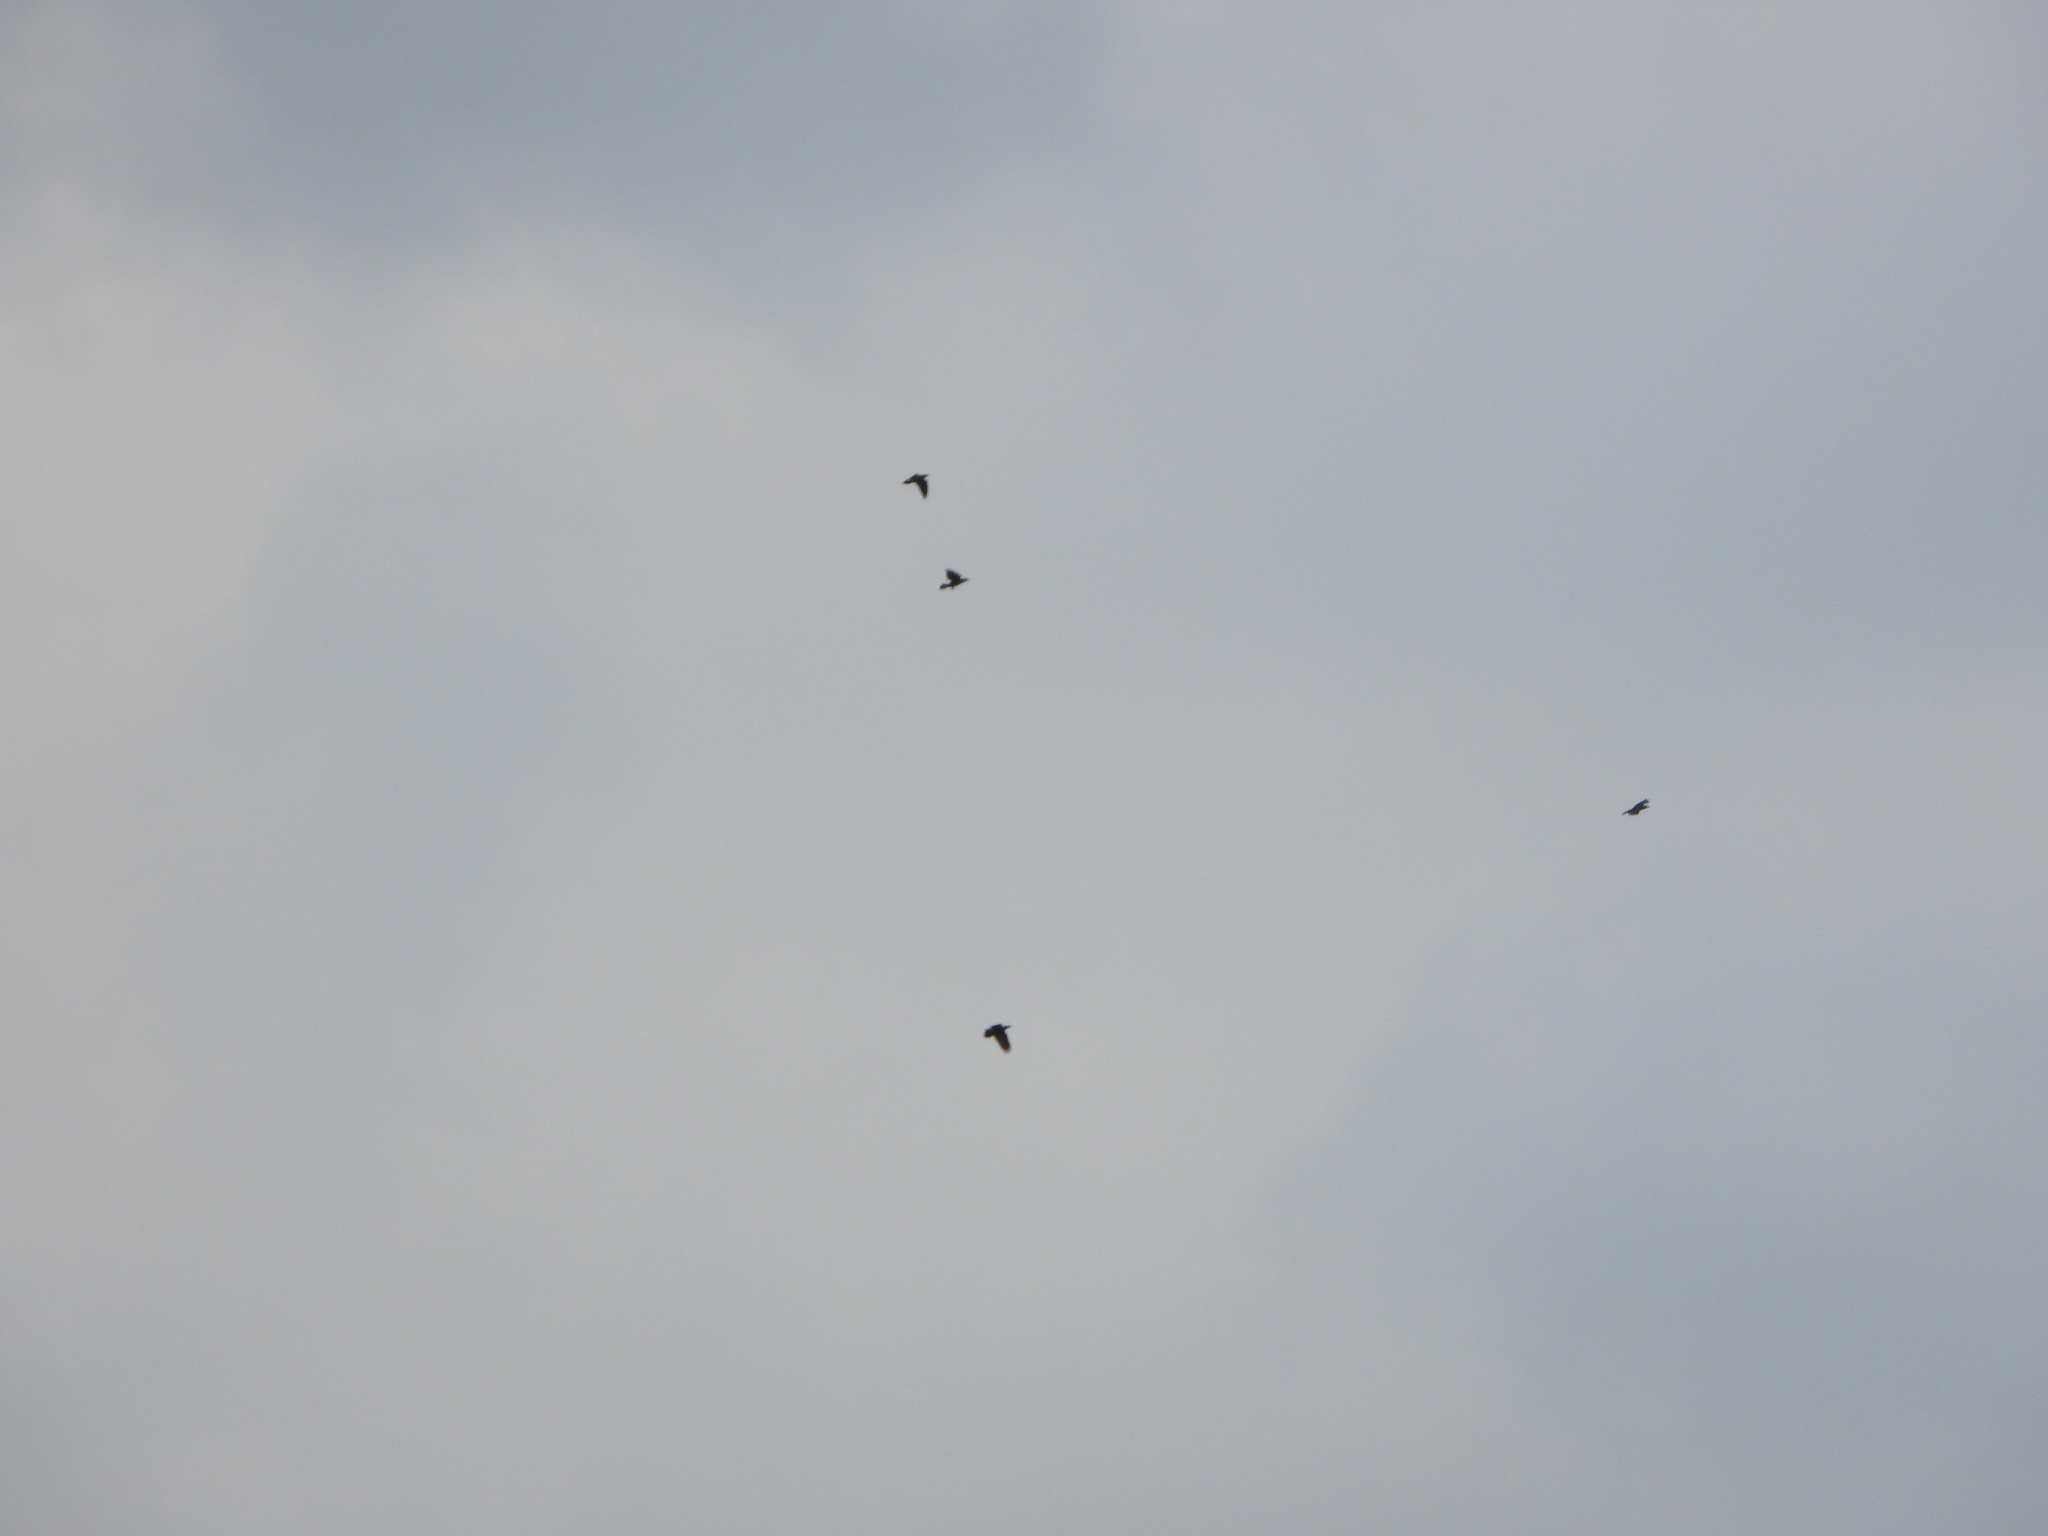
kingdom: Animalia
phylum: Chordata
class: Aves
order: Passeriformes
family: Corvidae
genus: Corvus
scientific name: Corvus corax
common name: Common raven
